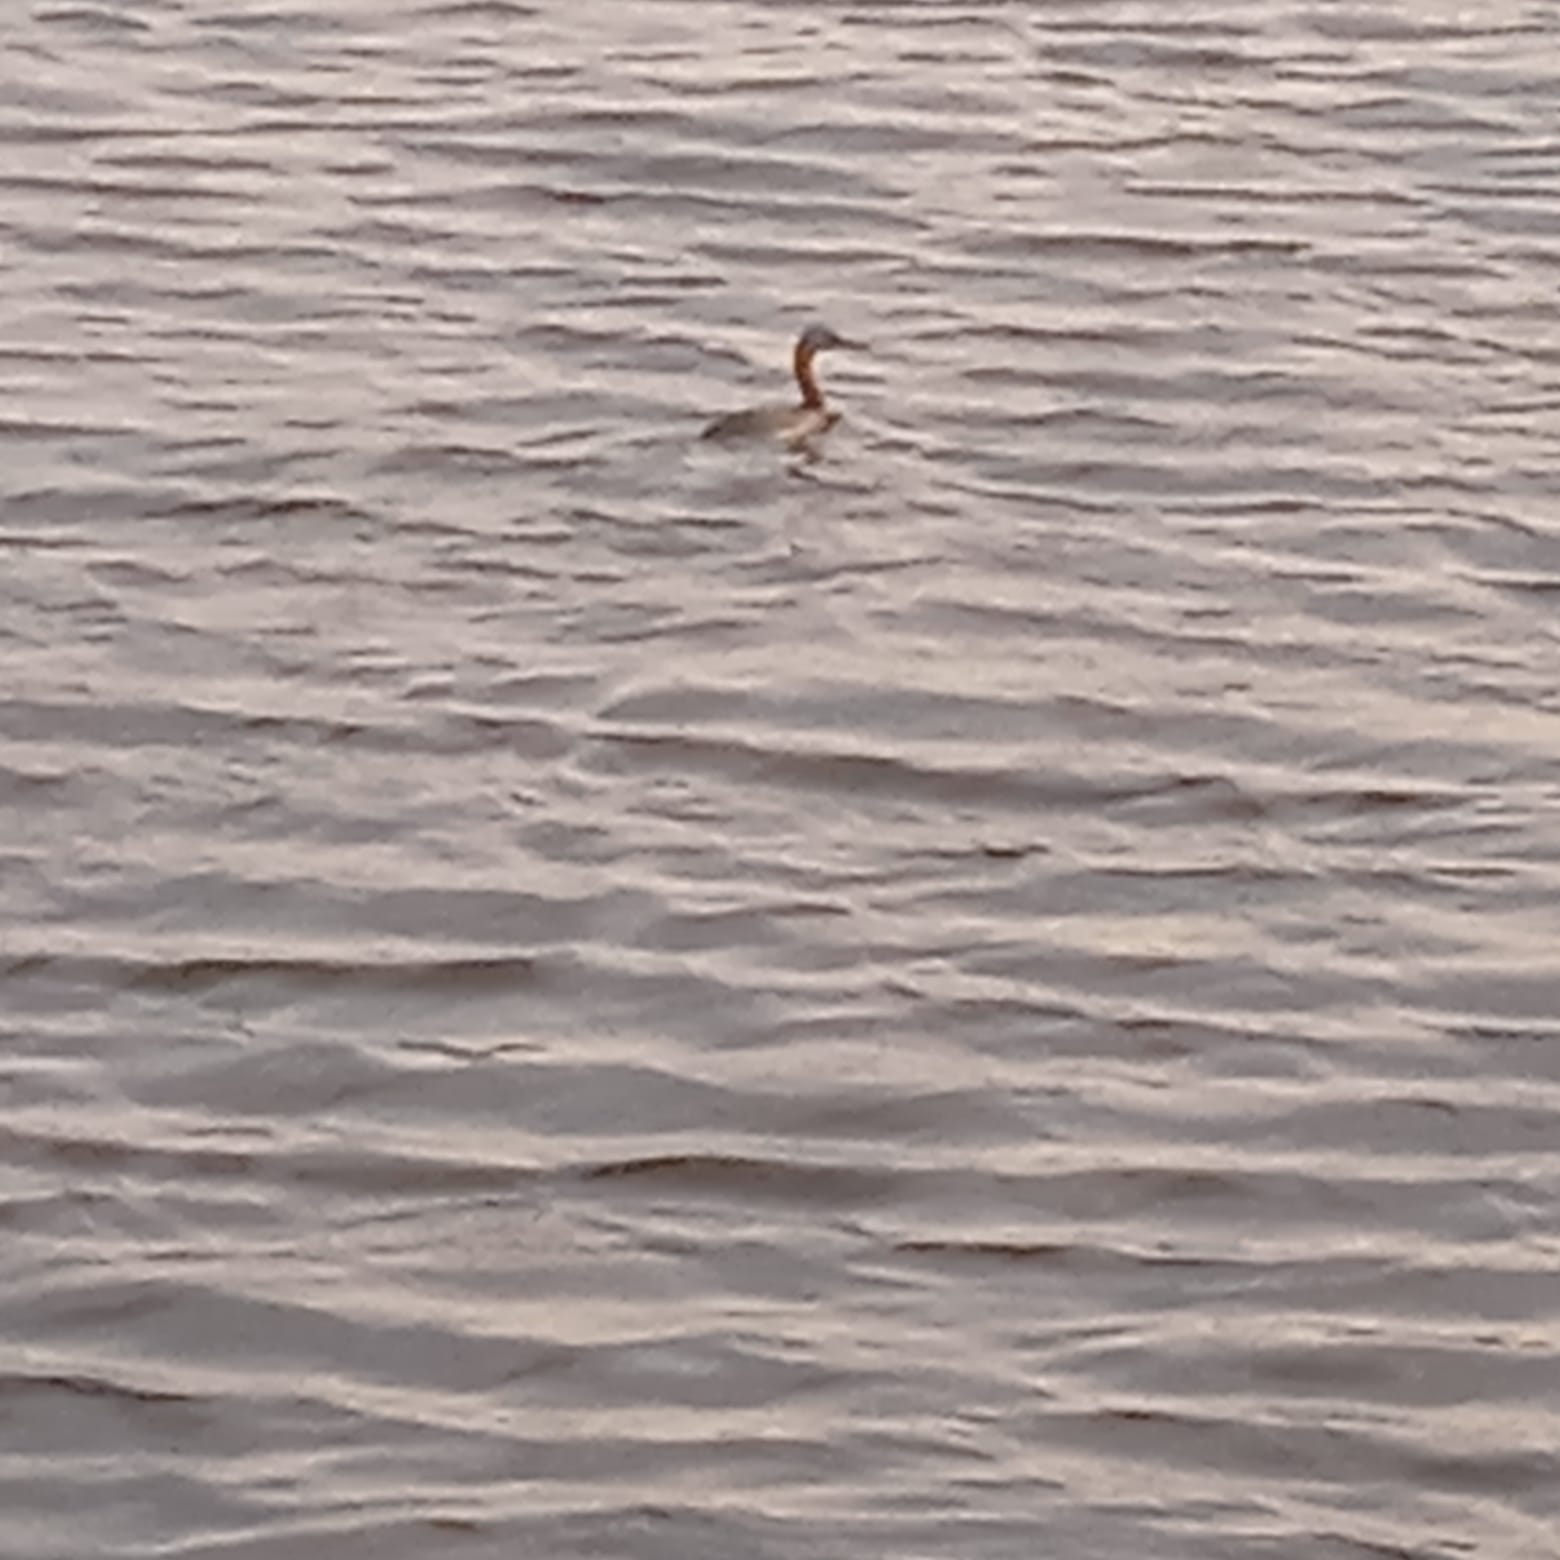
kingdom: Animalia
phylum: Chordata
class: Aves
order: Podicipediformes
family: Podicipedidae
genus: Podiceps
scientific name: Podiceps major
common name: Great grebe
